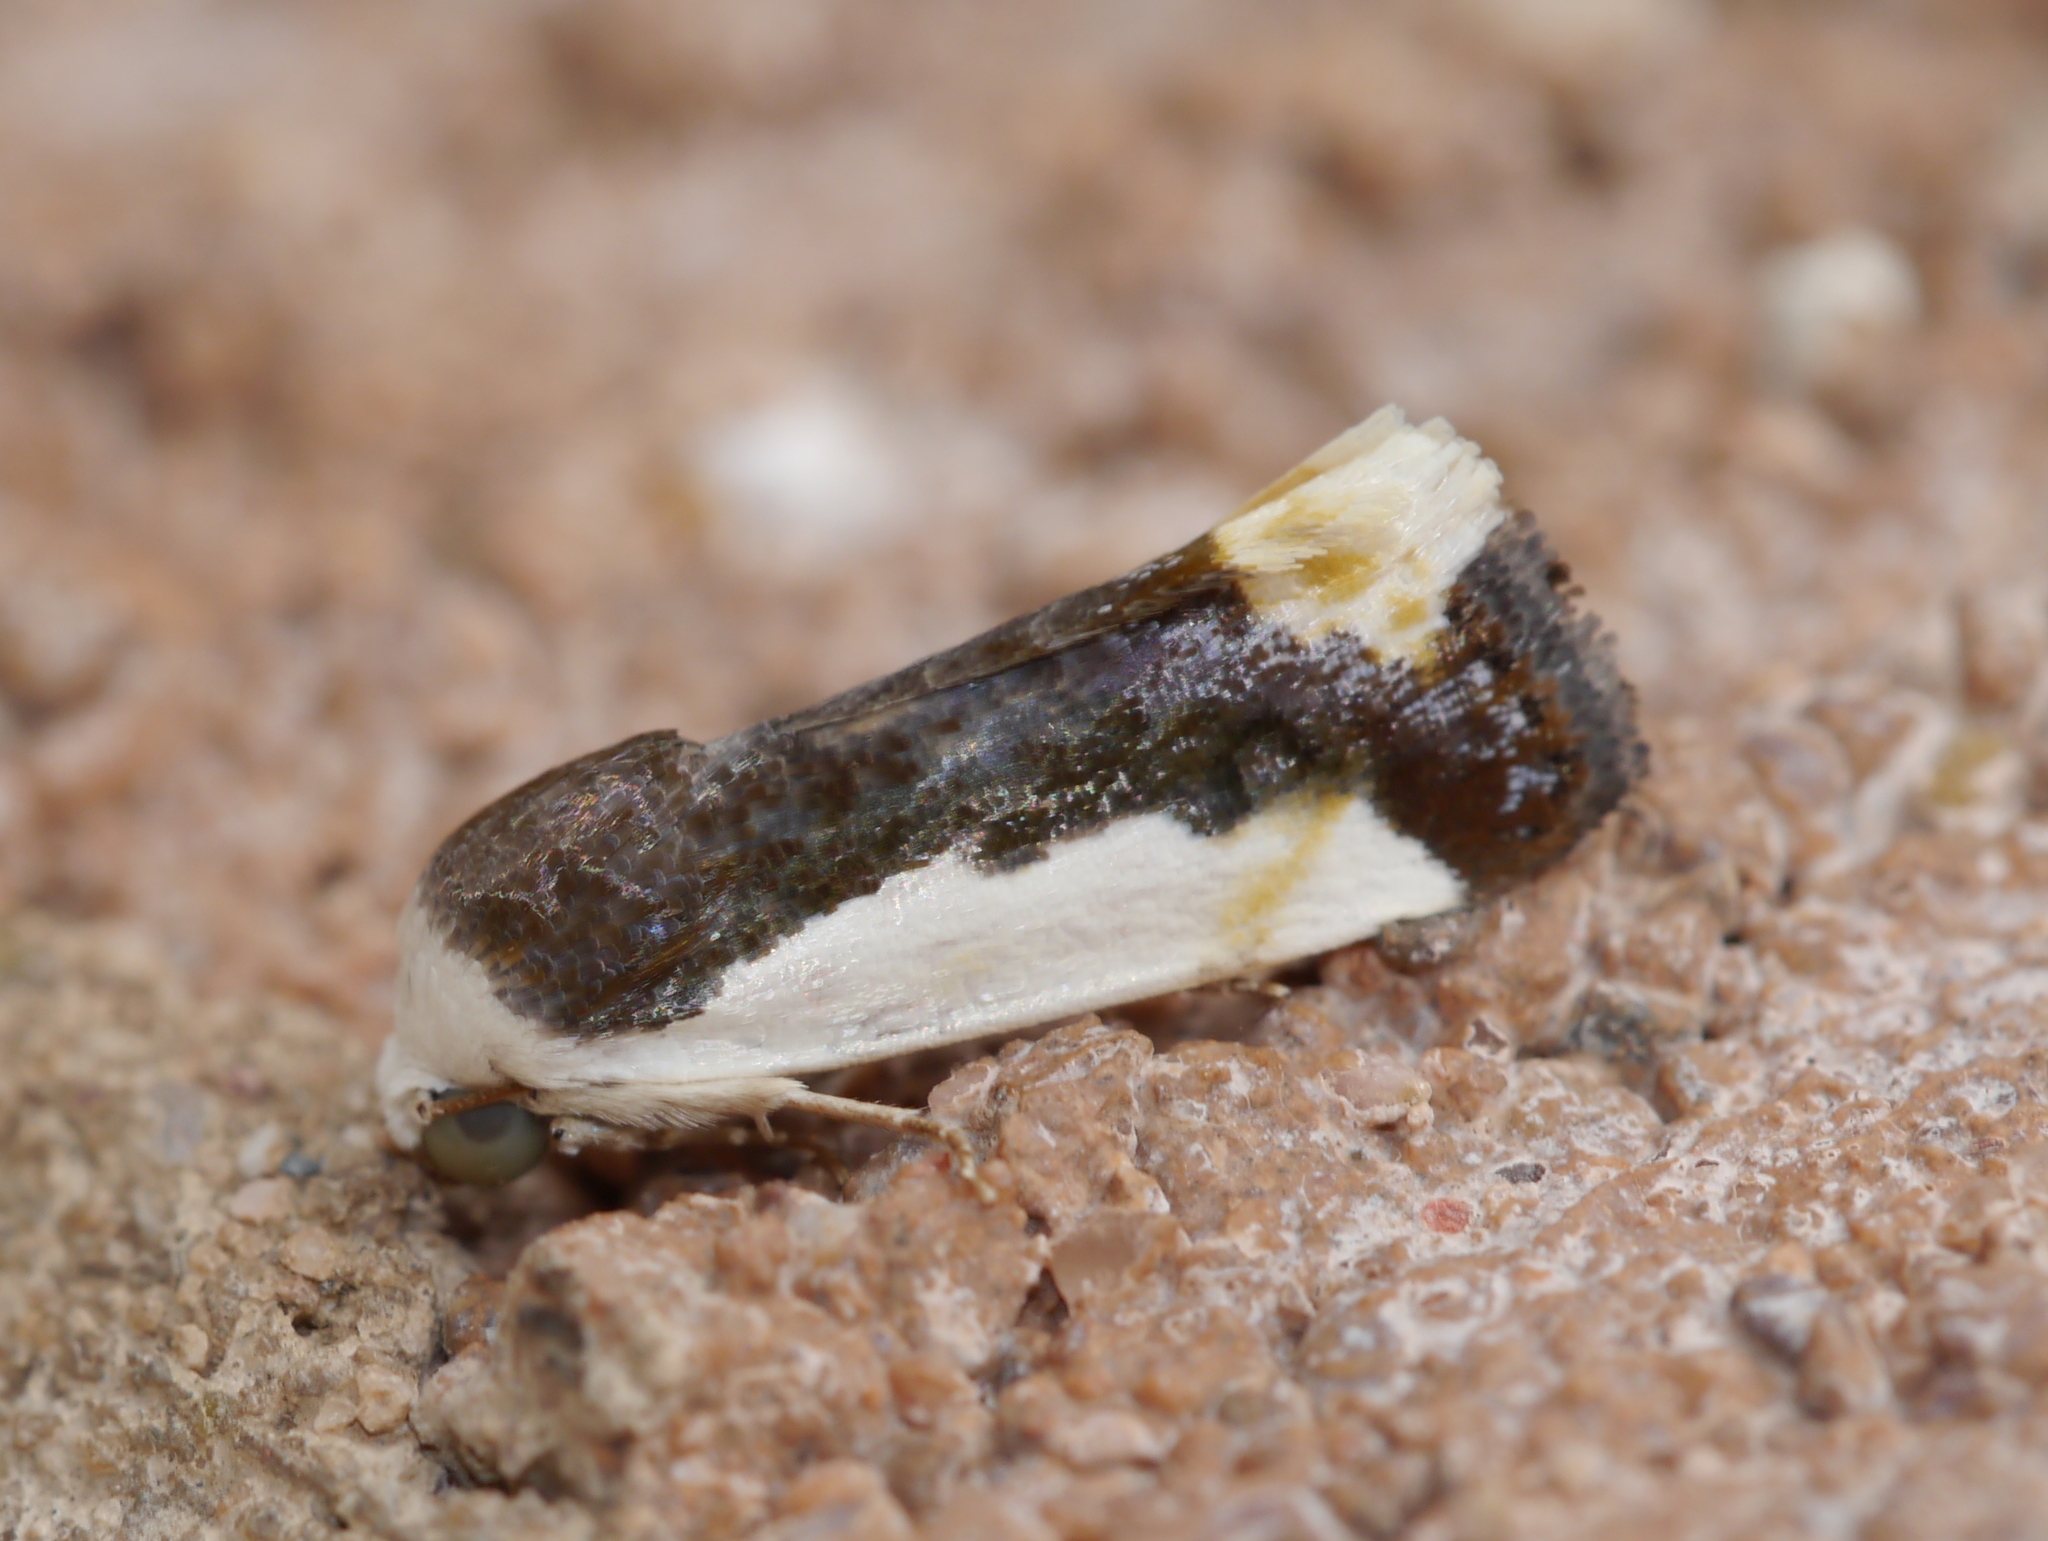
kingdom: Animalia
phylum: Arthropoda
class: Insecta
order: Lepidoptera
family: Noctuidae
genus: Acontia
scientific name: Acontia Tarache expolita
